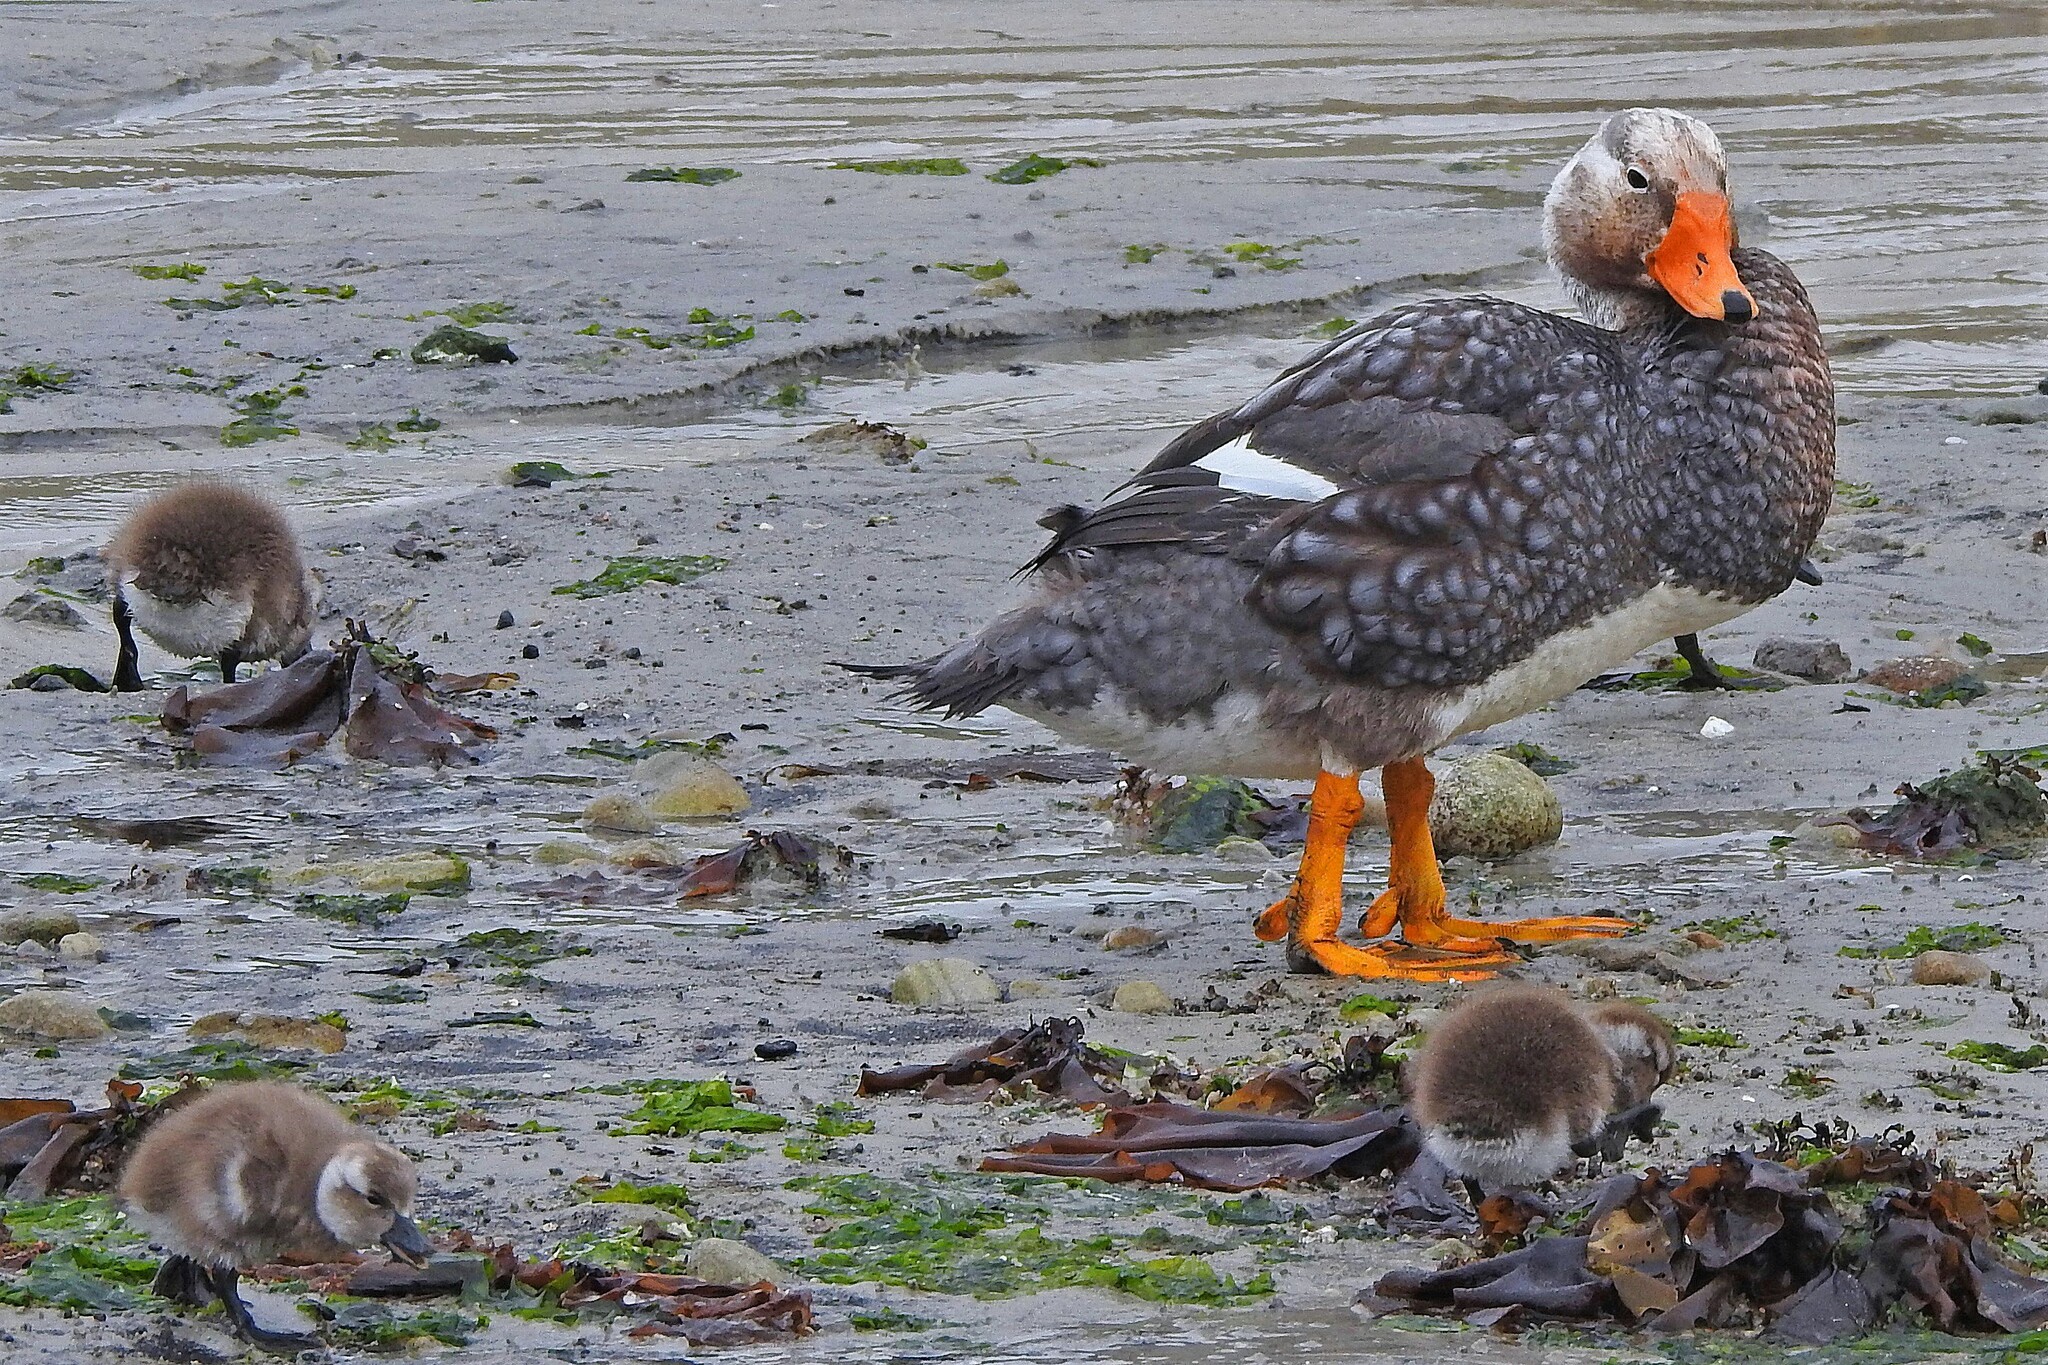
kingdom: Animalia
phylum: Chordata
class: Aves
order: Anseriformes
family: Anatidae
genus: Tachyeres
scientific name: Tachyeres brachypterus
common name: Falkland steamer duck
